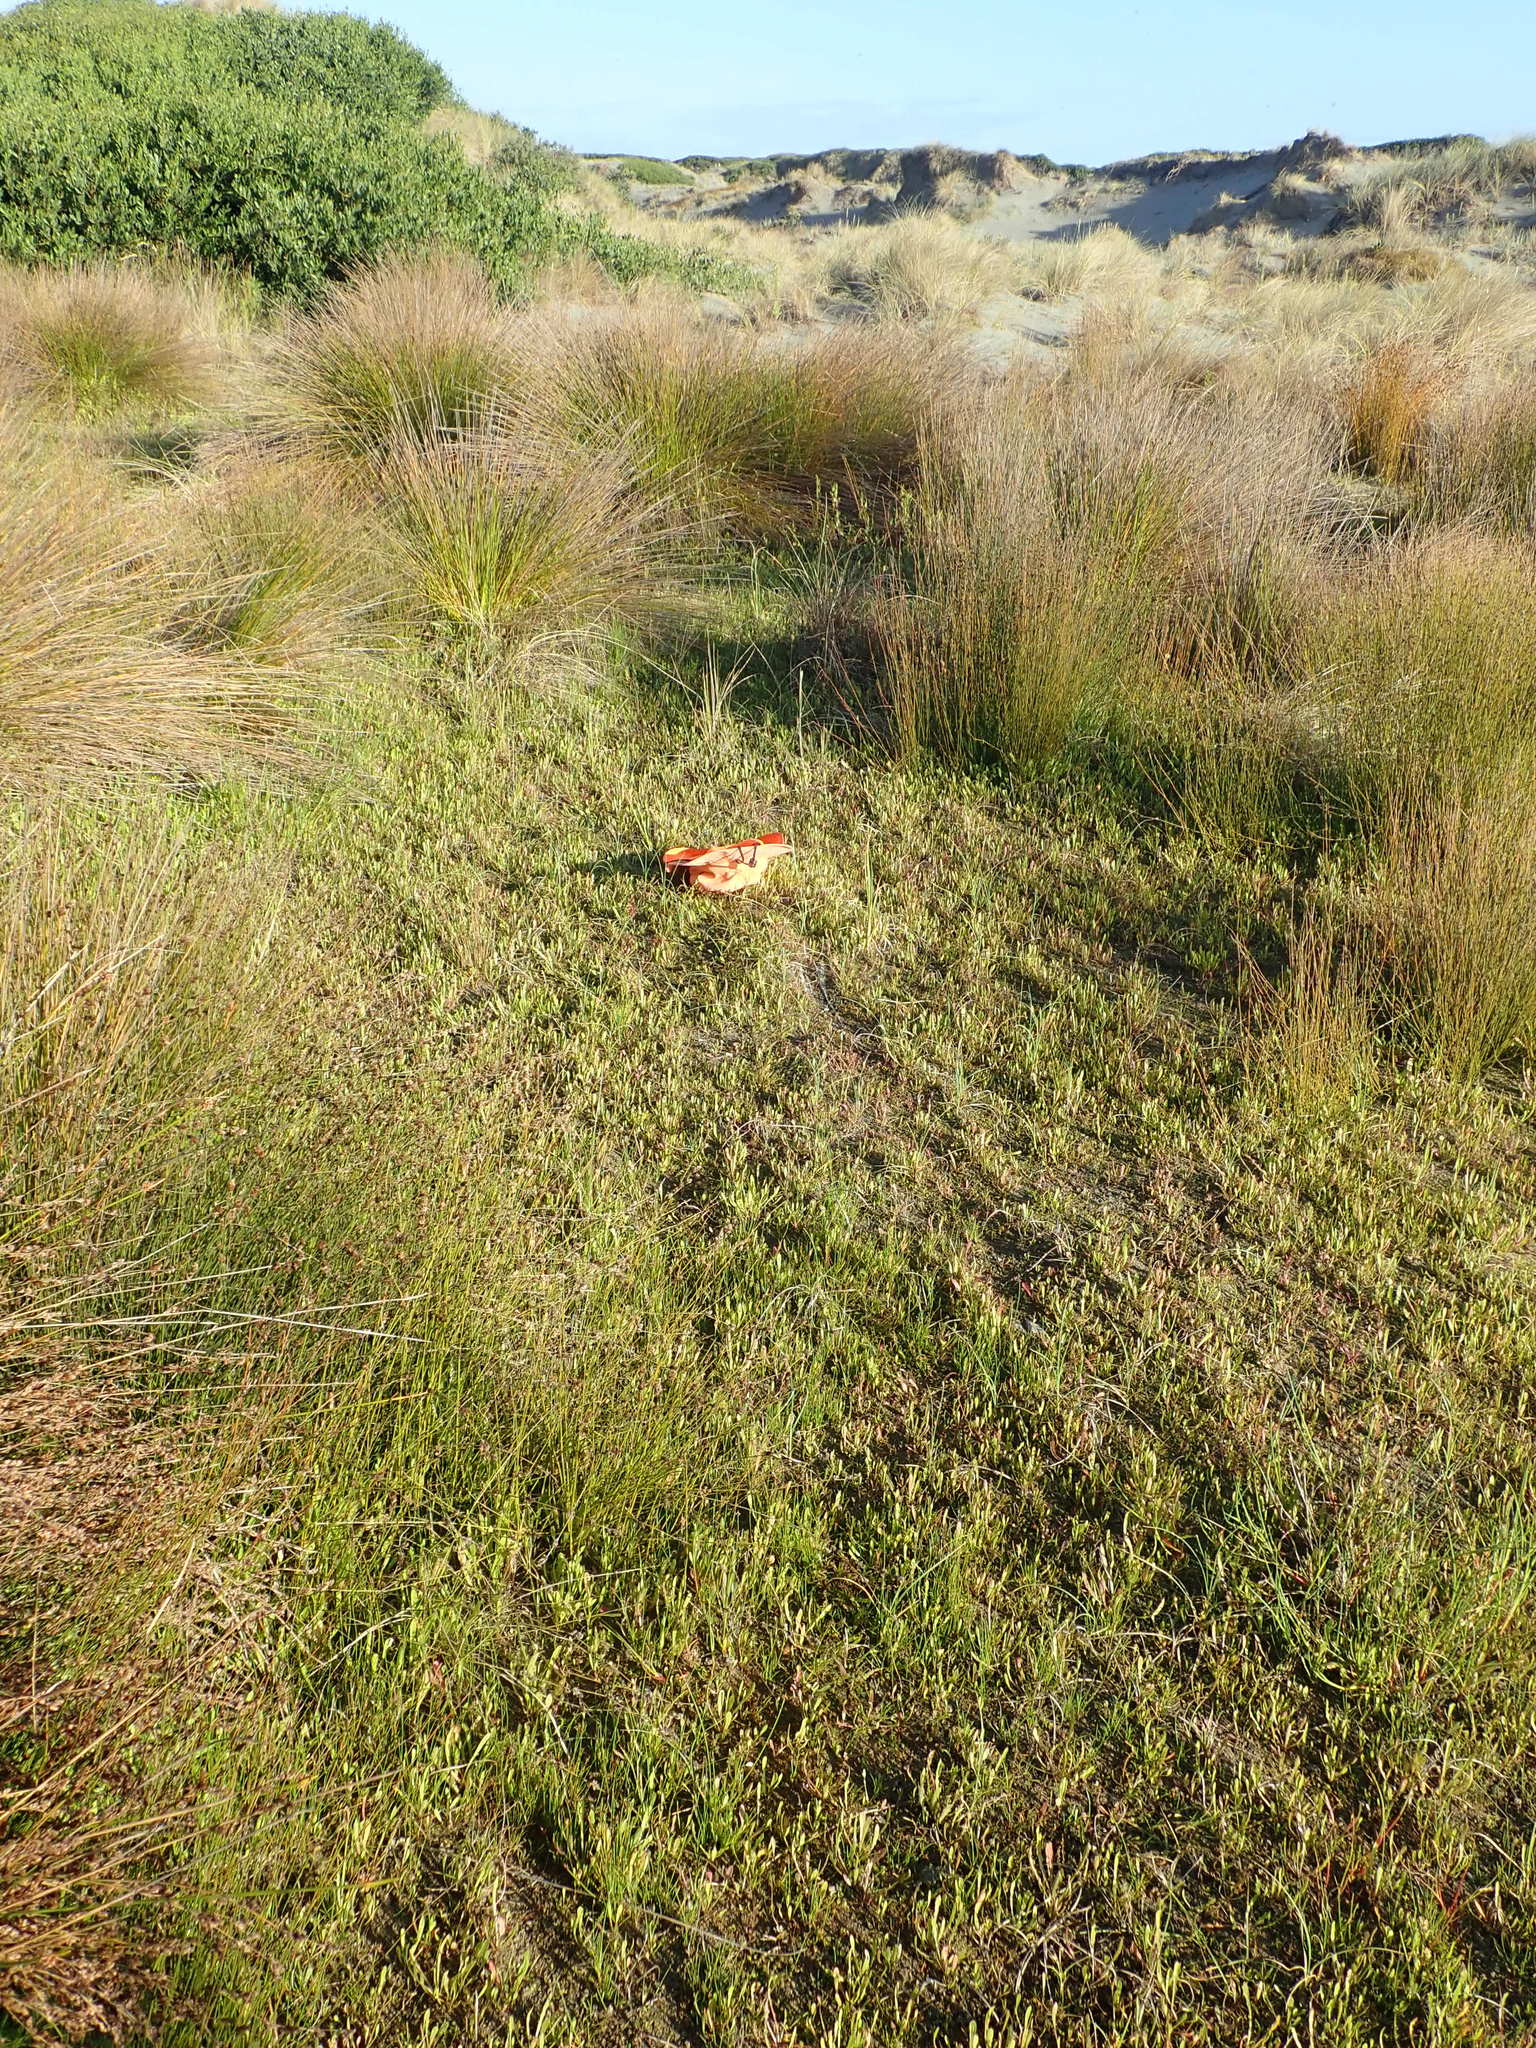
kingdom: Plantae
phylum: Tracheophyta
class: Magnoliopsida
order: Myrtales
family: Onagraceae
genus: Epilobium
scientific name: Epilobium billardiereanum
